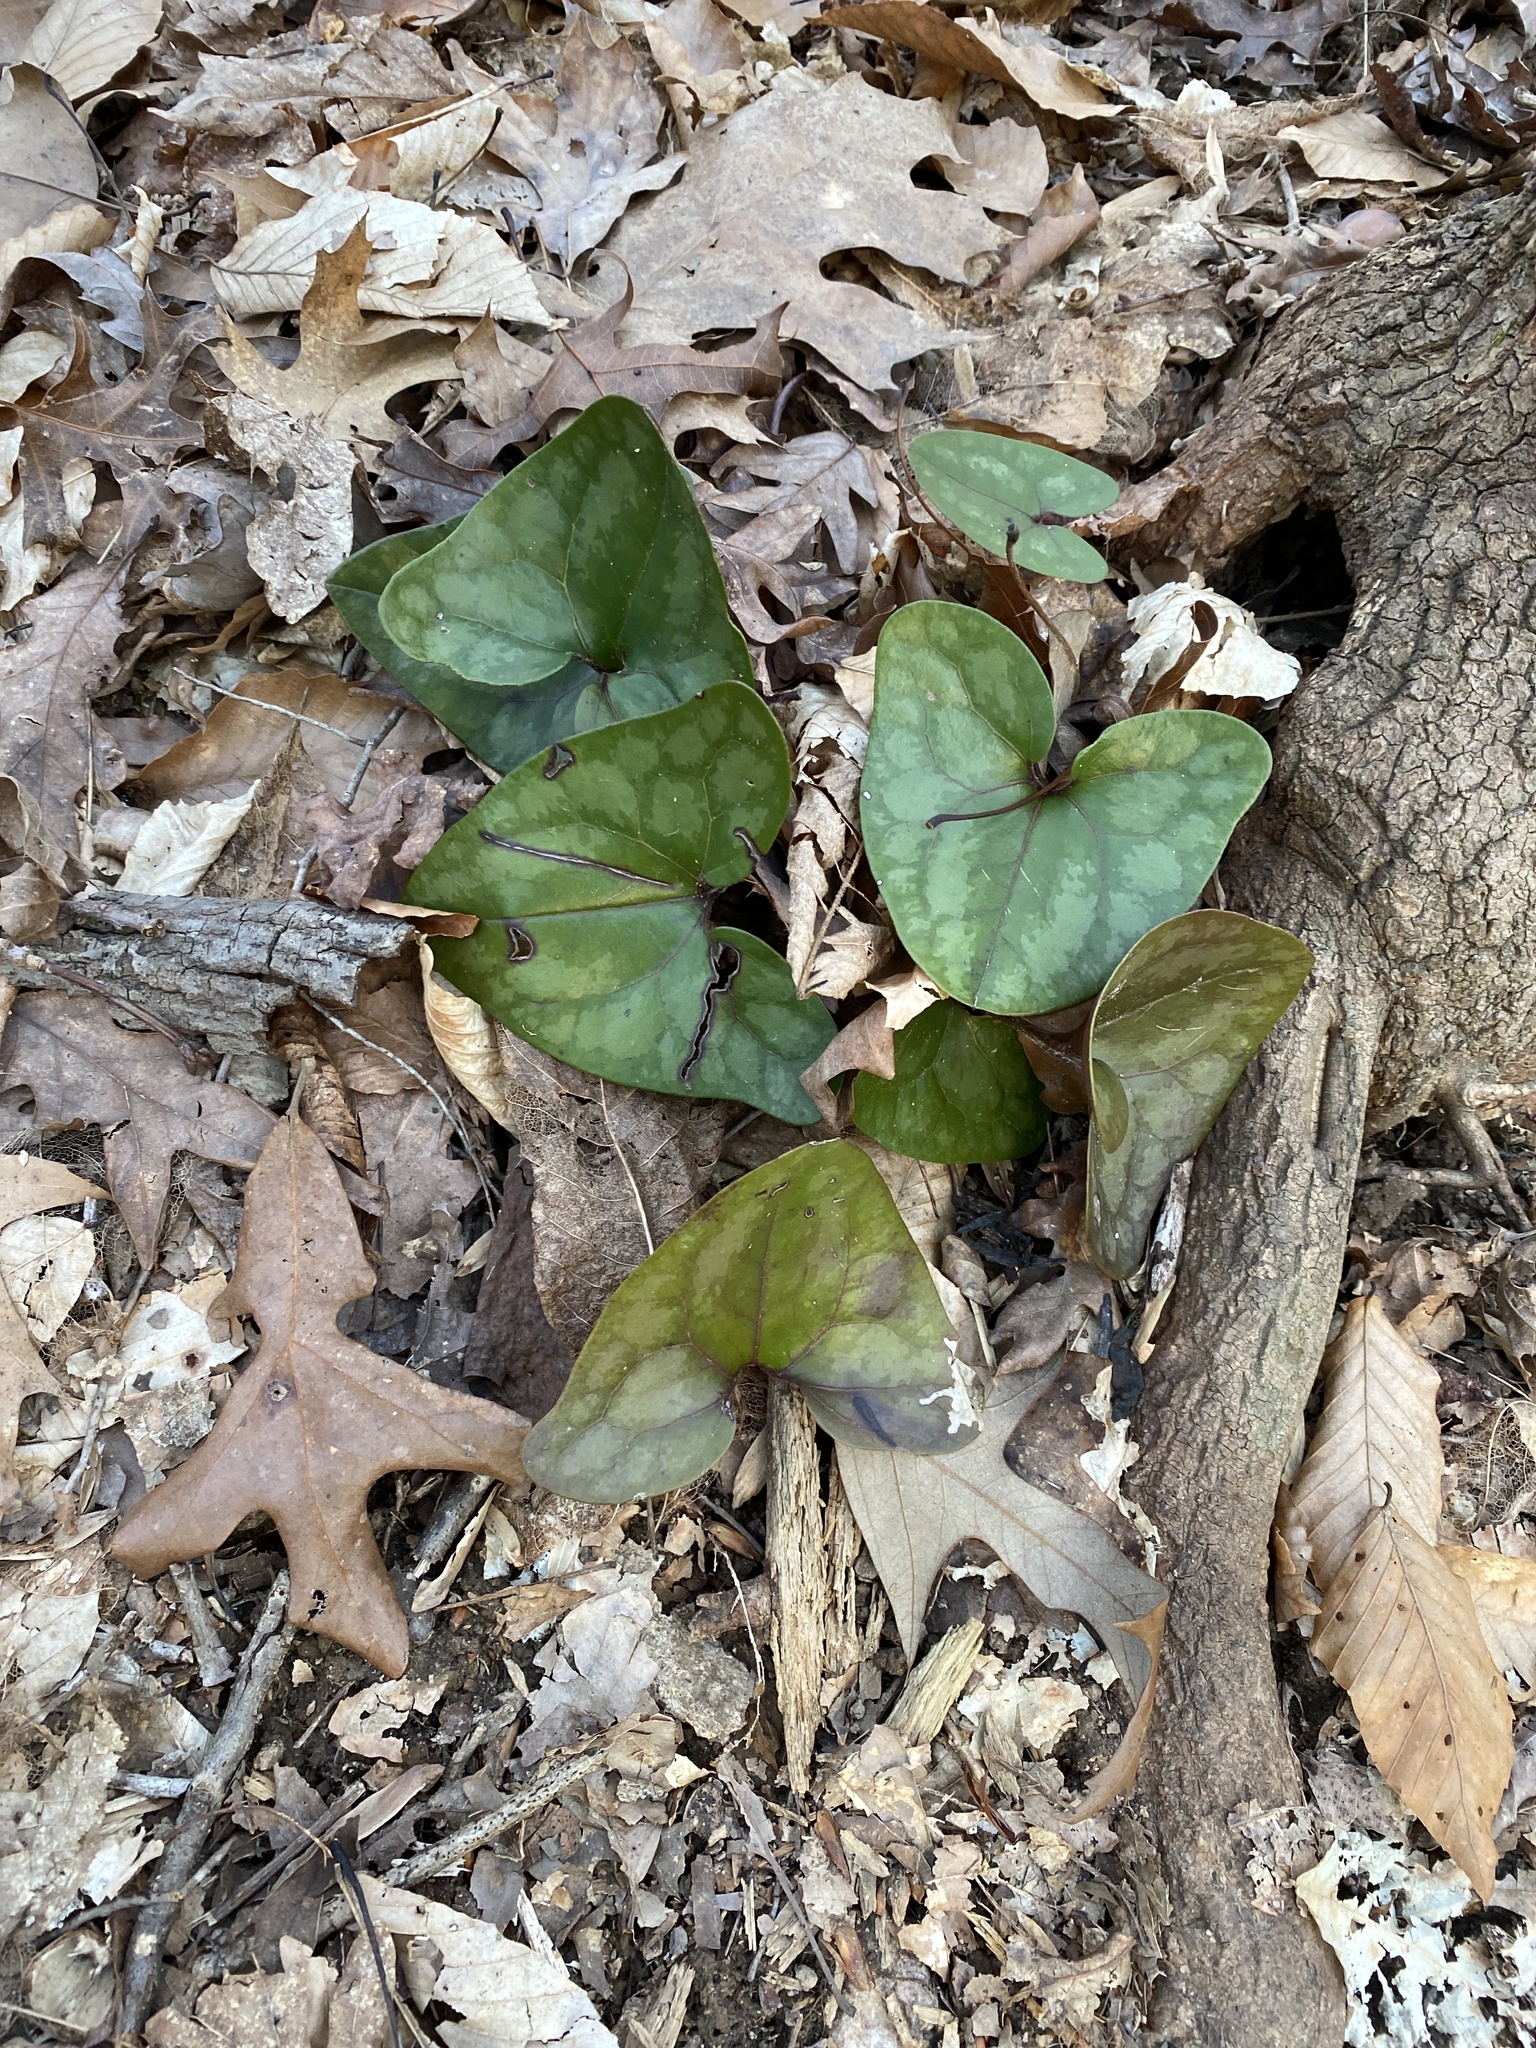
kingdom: Plantae
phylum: Tracheophyta
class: Magnoliopsida
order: Piperales
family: Aristolochiaceae
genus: Hexastylis
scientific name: Hexastylis arifolia
